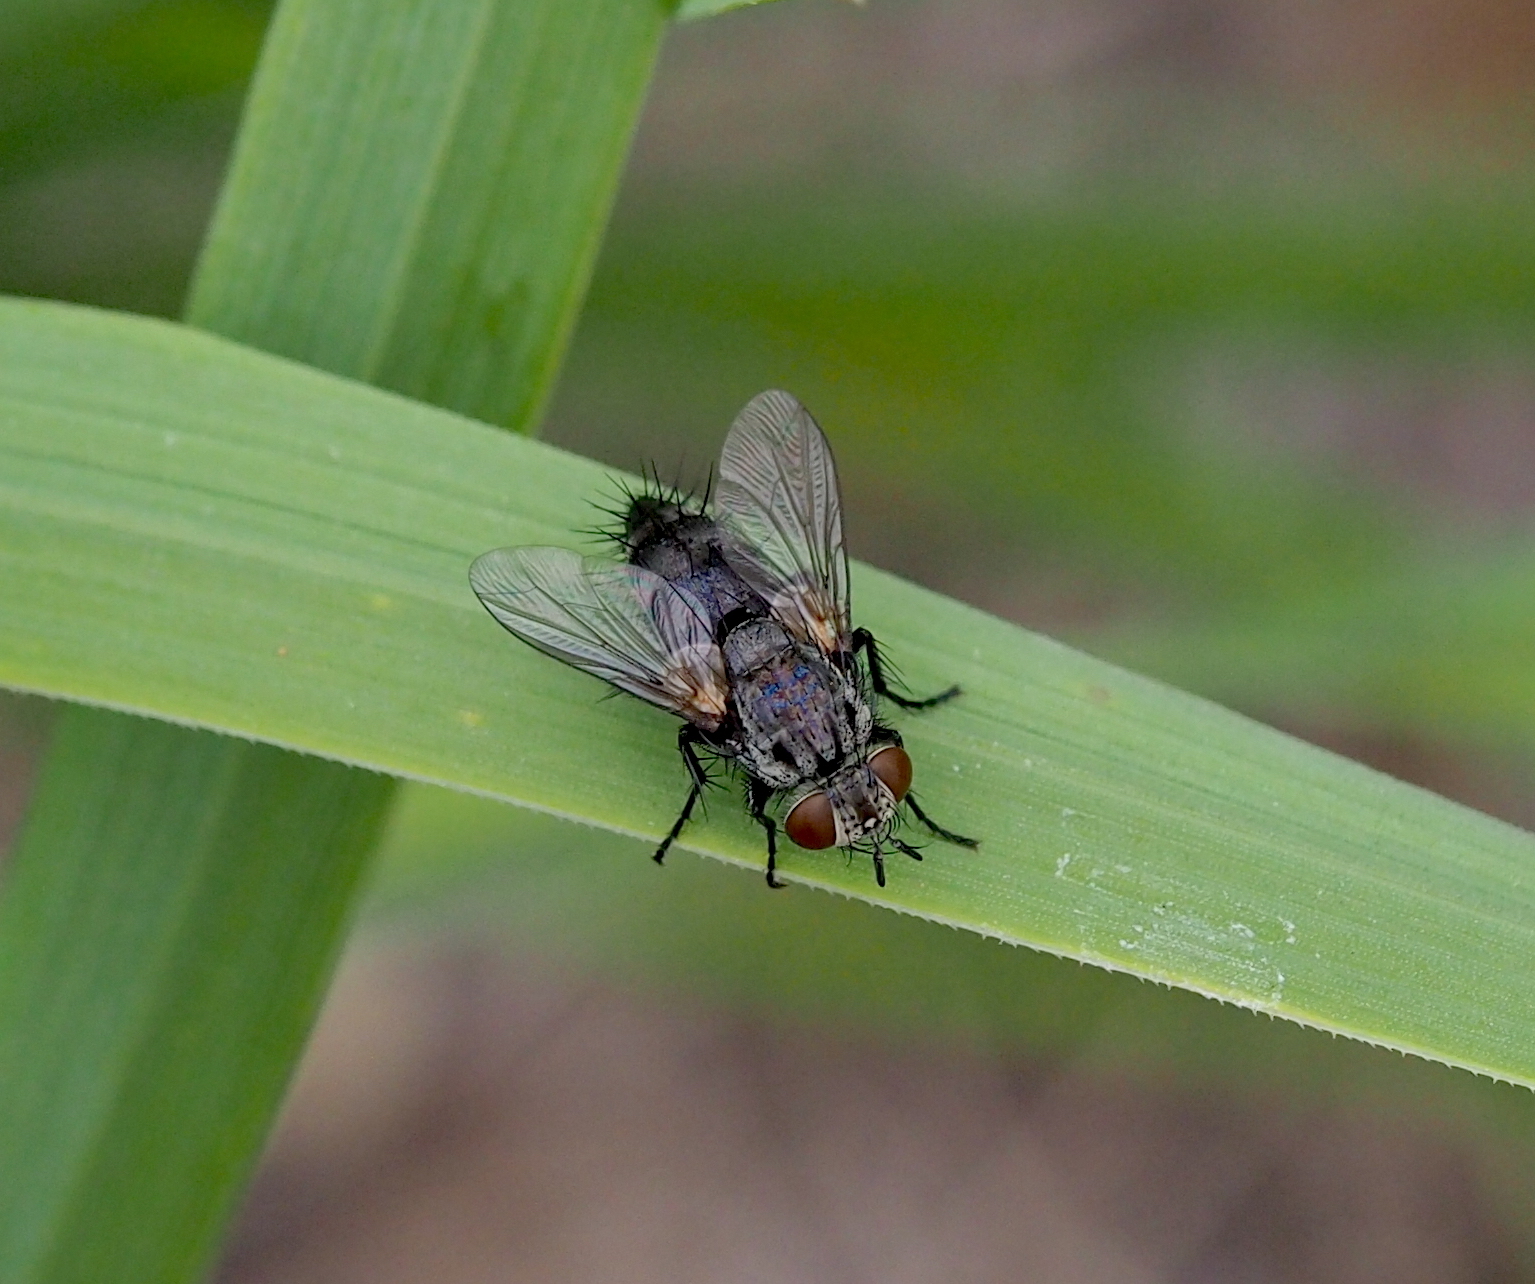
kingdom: Animalia
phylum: Arthropoda
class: Insecta
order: Diptera
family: Tachinidae
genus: Voria
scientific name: Voria ruralis
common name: Parasitic fly
